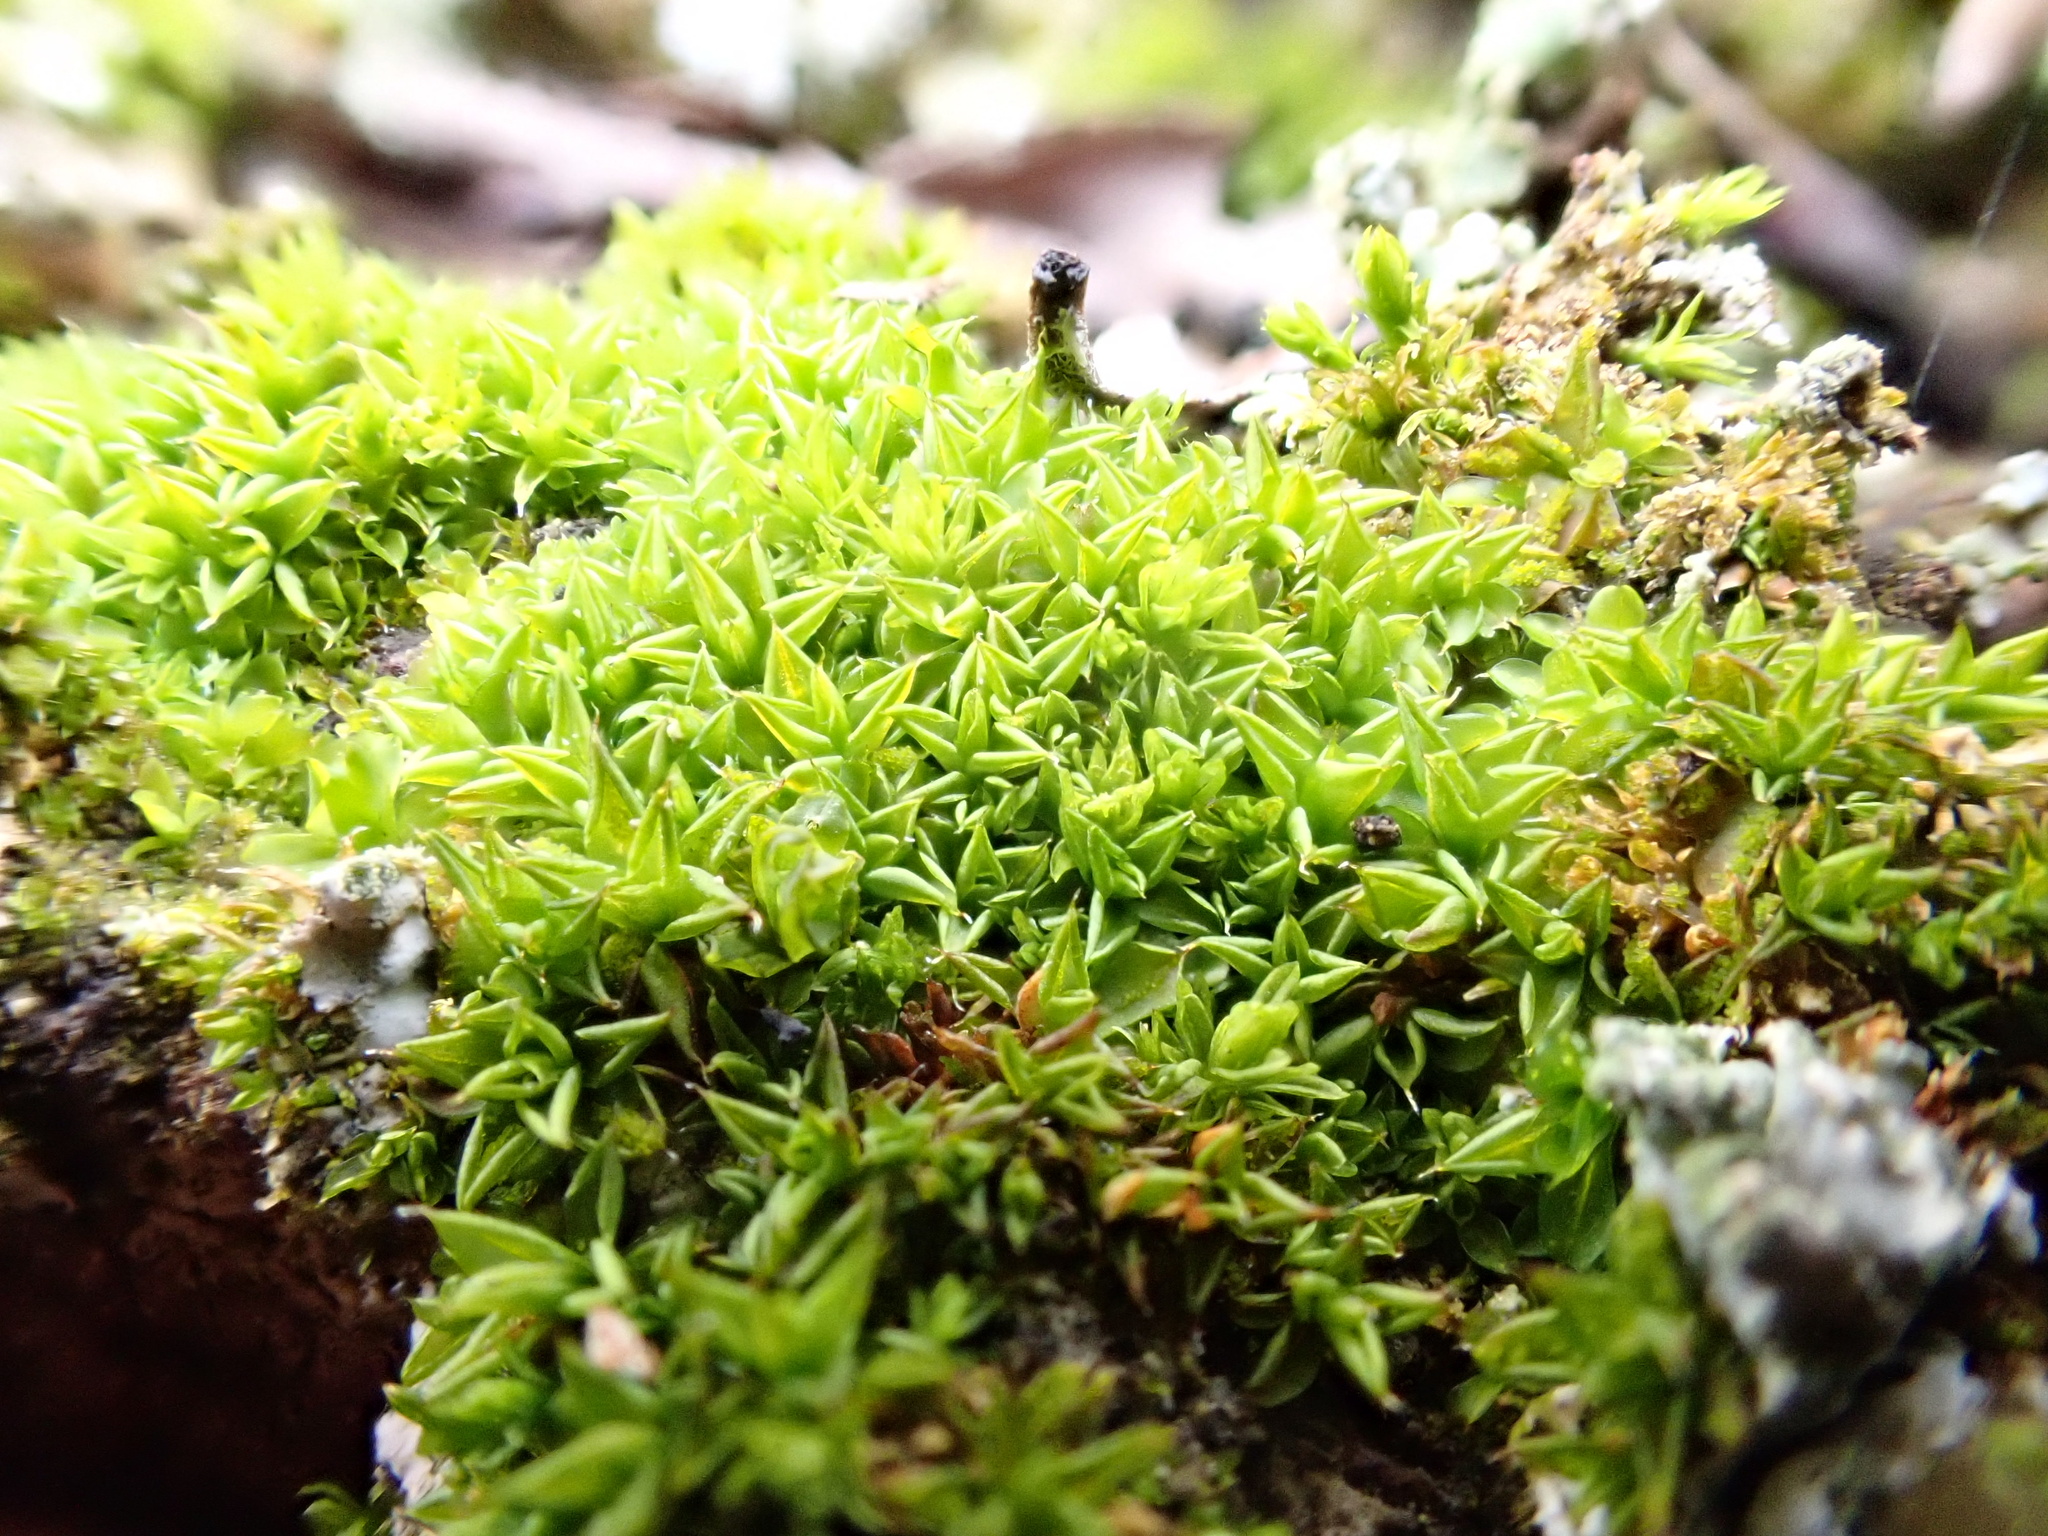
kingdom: Plantae
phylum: Bryophyta
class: Bryopsida
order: Pottiales
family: Pottiaceae
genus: Syntrichia
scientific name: Syntrichia papillosa
